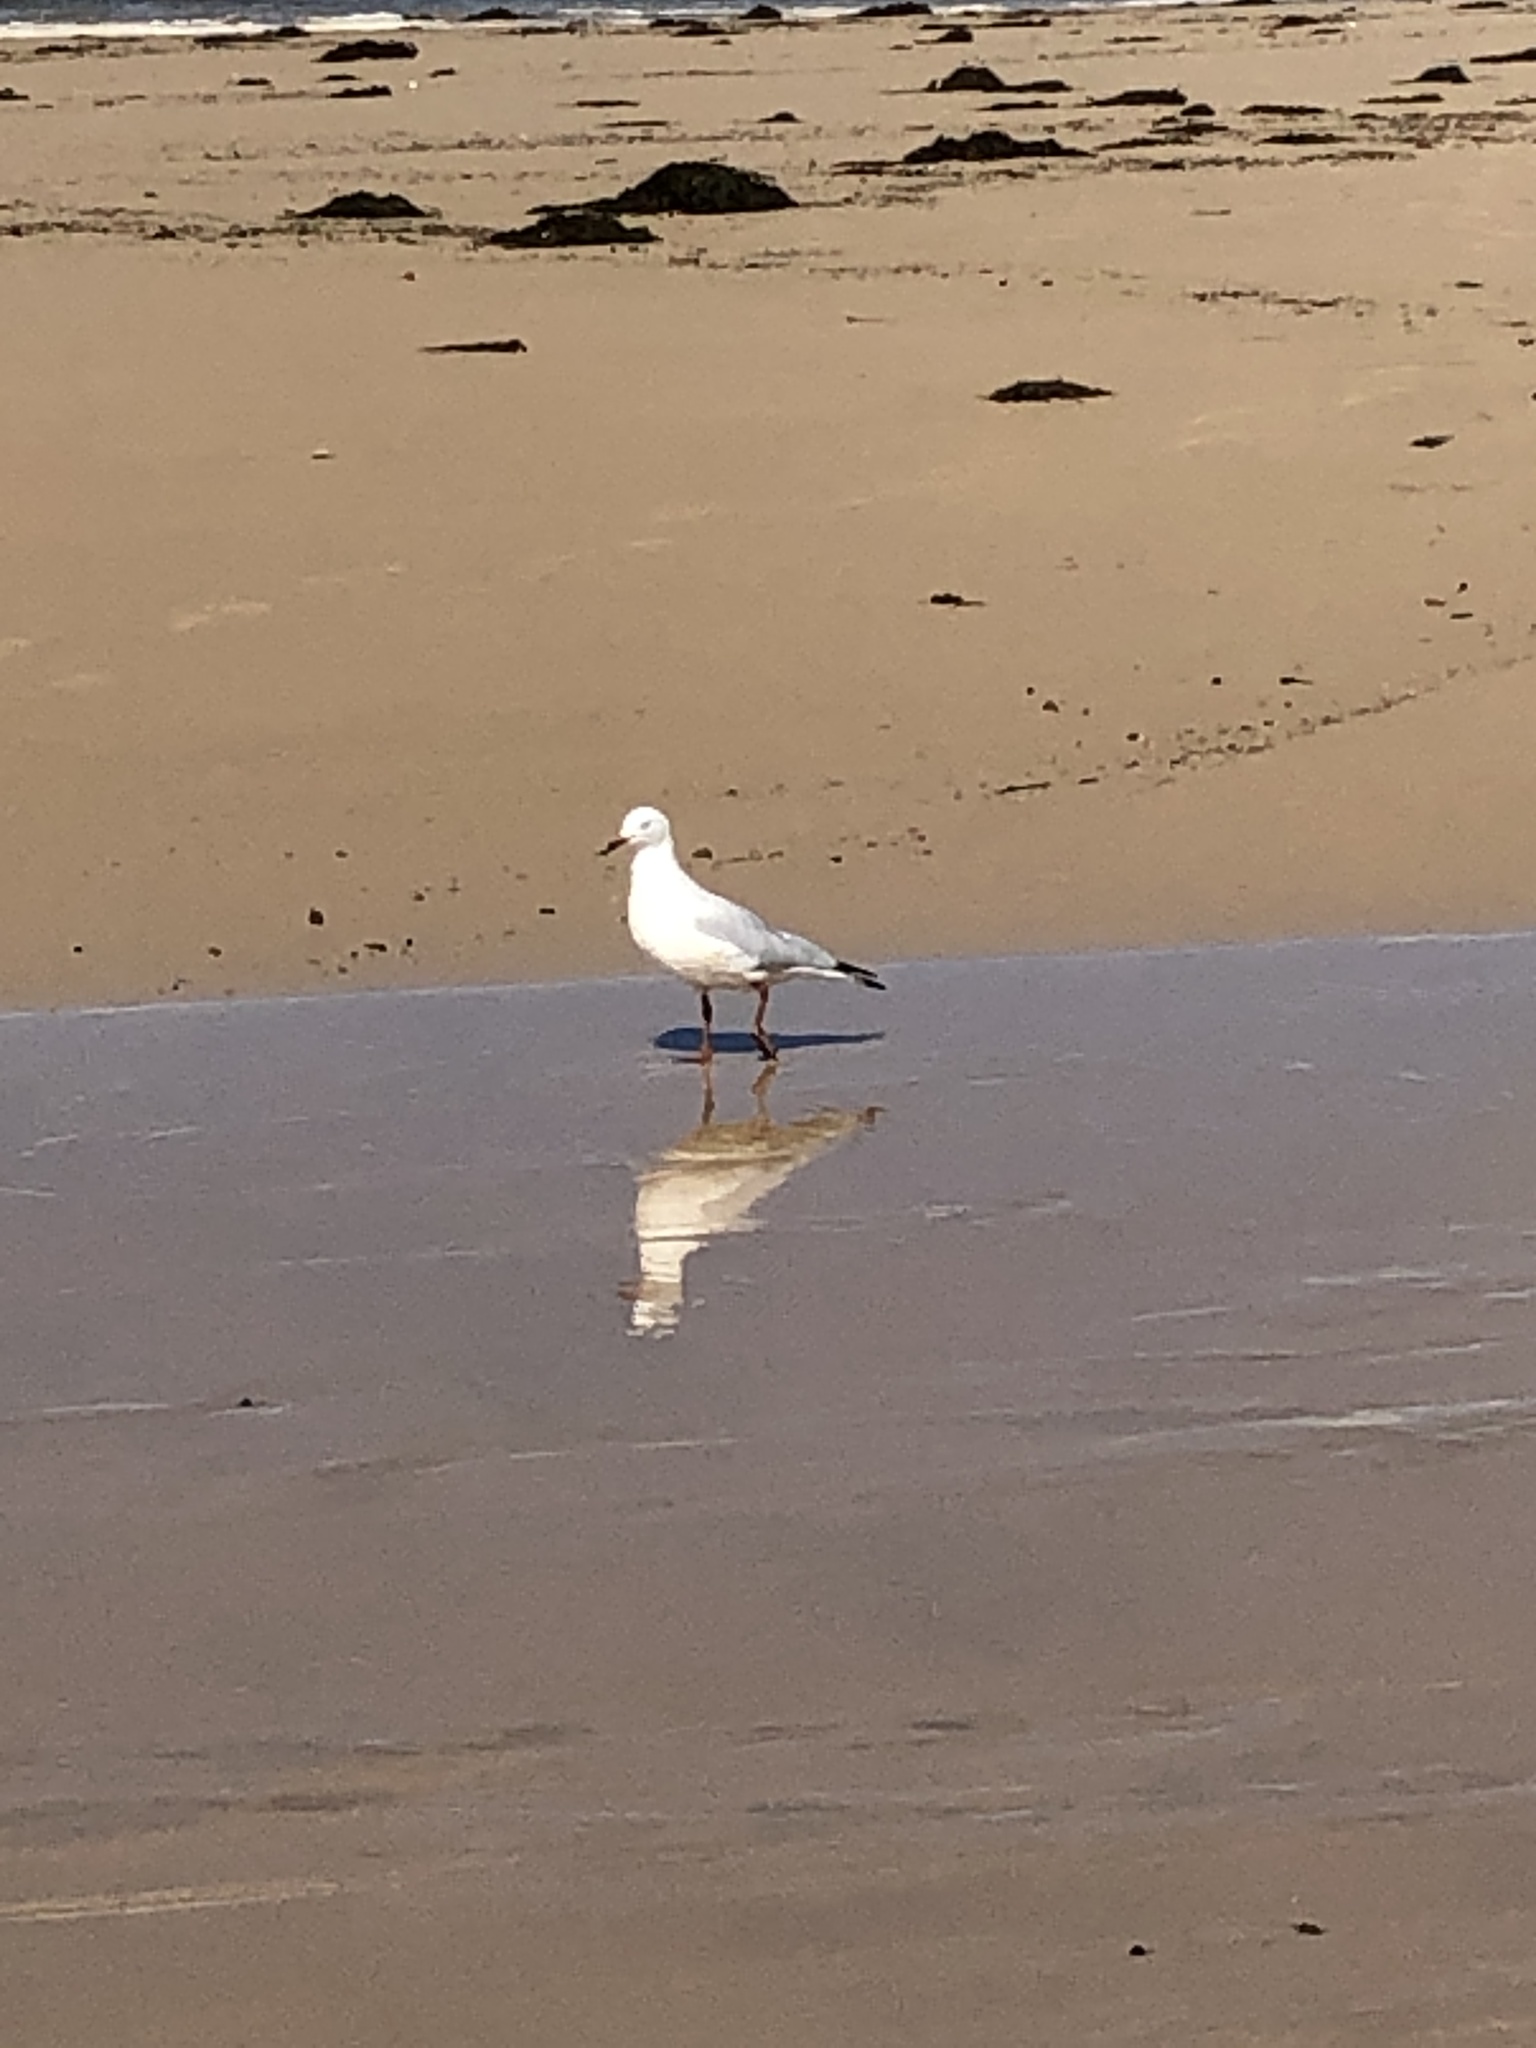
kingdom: Animalia
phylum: Chordata
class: Aves
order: Charadriiformes
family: Laridae
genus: Chroicocephalus
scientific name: Chroicocephalus novaehollandiae
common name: Silver gull
